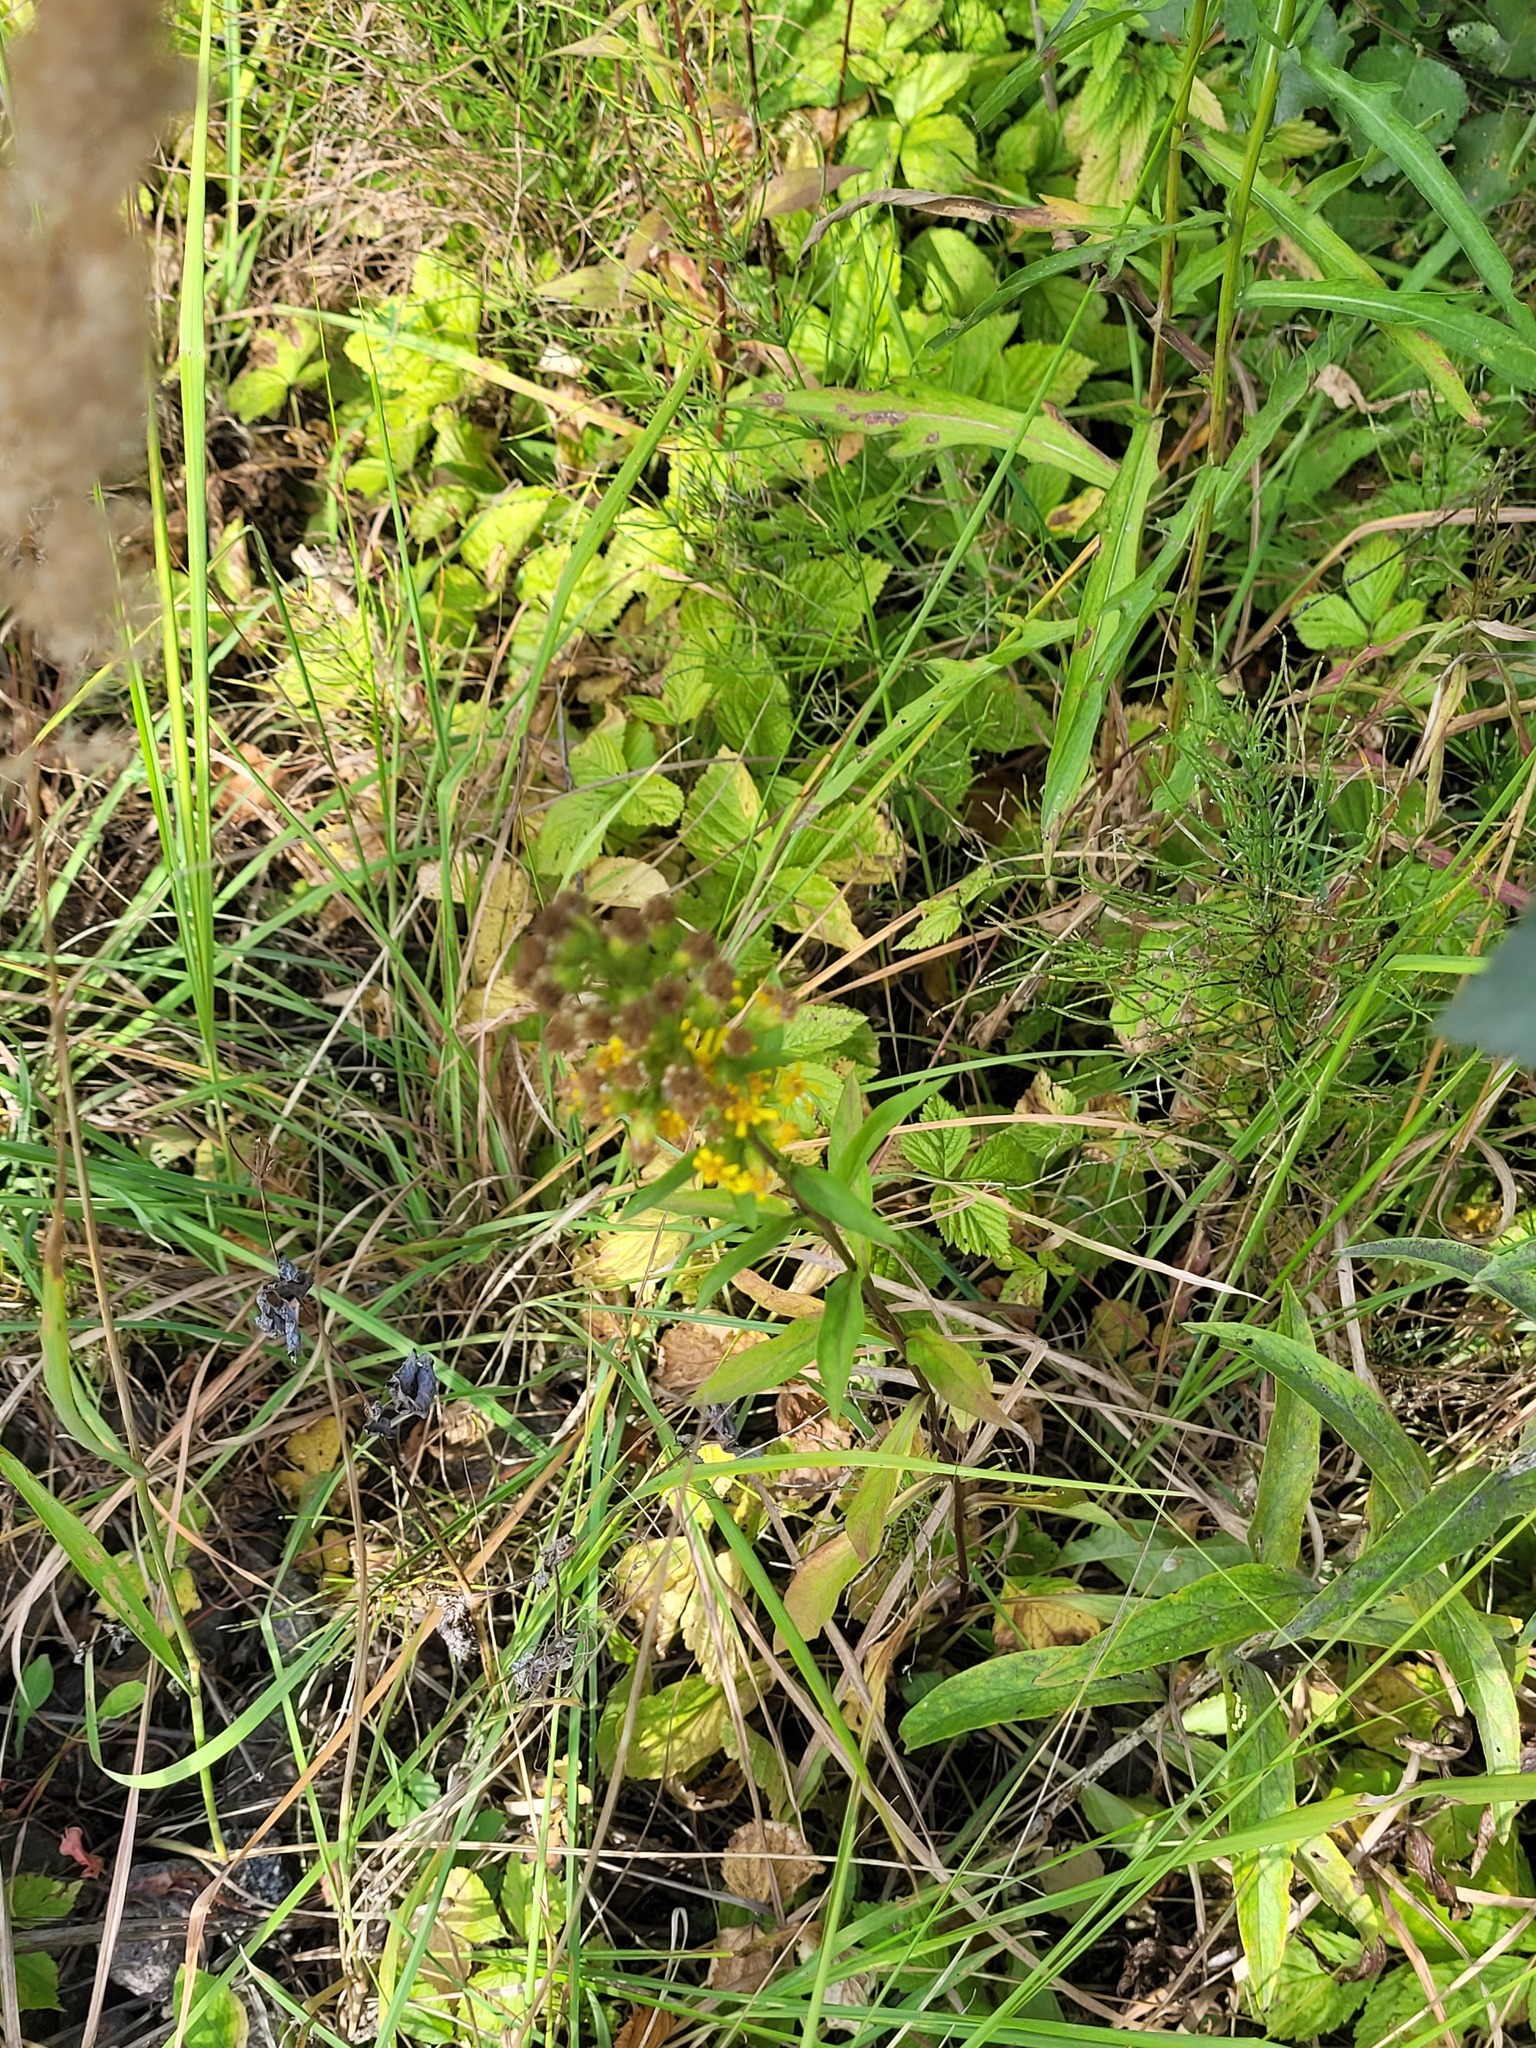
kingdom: Plantae
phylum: Tracheophyta
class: Magnoliopsida
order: Asterales
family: Asteraceae
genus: Solidago
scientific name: Solidago virgaurea
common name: Goldenrod
